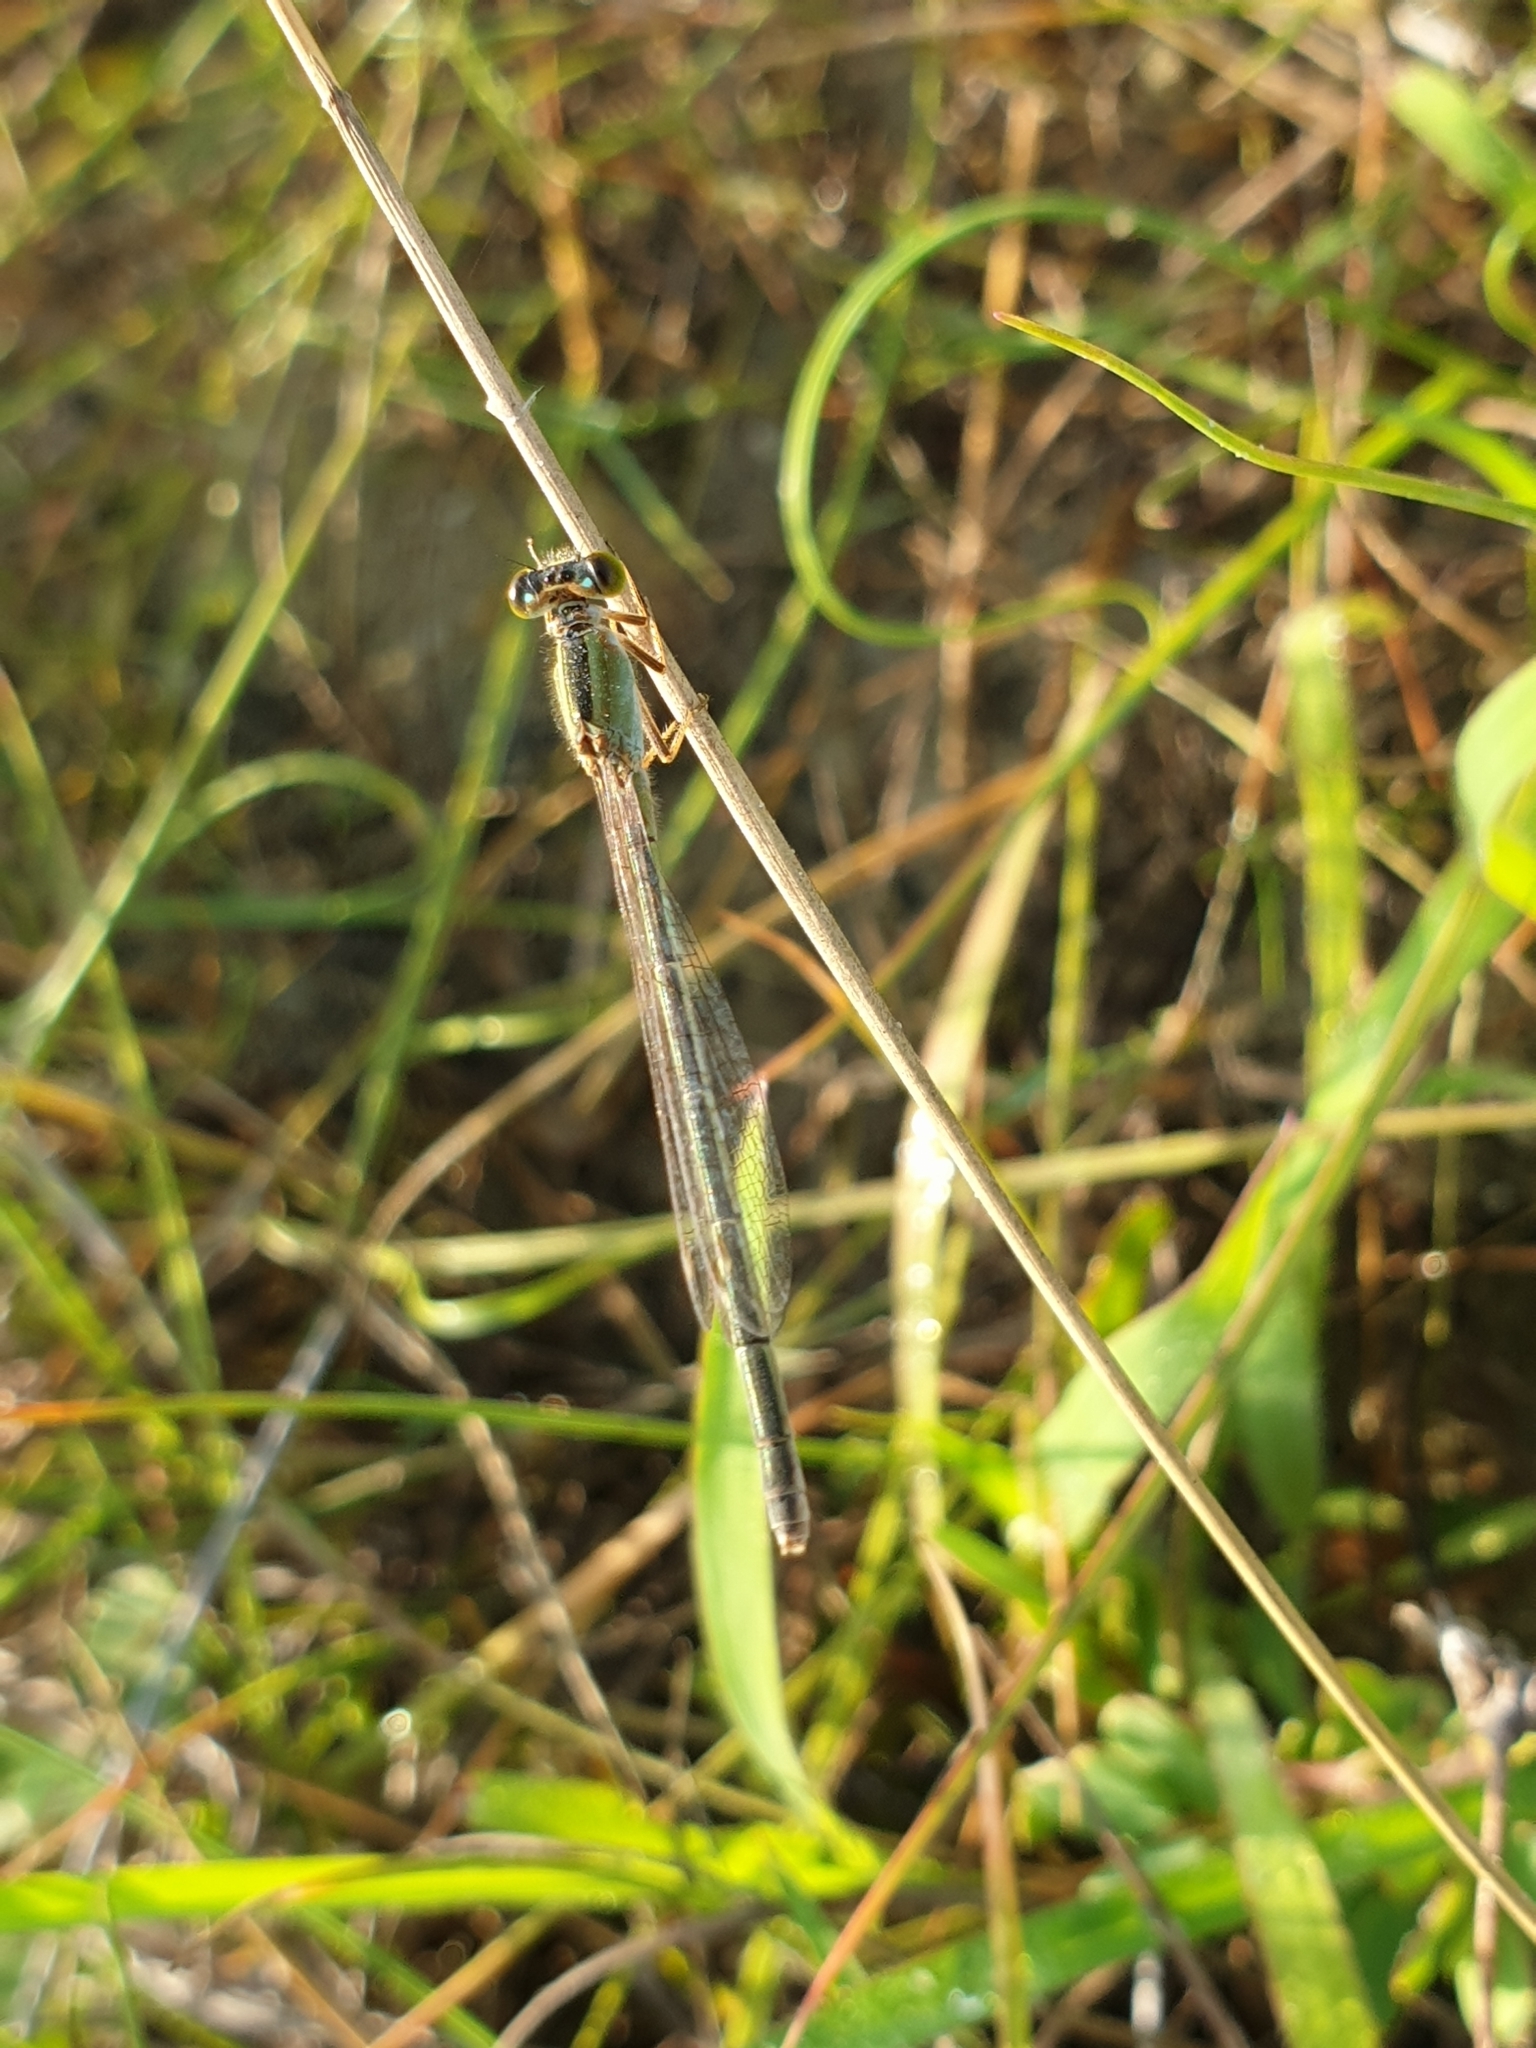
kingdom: Animalia
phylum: Arthropoda
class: Insecta
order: Odonata
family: Coenagrionidae
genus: Ischnura
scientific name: Ischnura senegalensis
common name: Tropical bluetail
